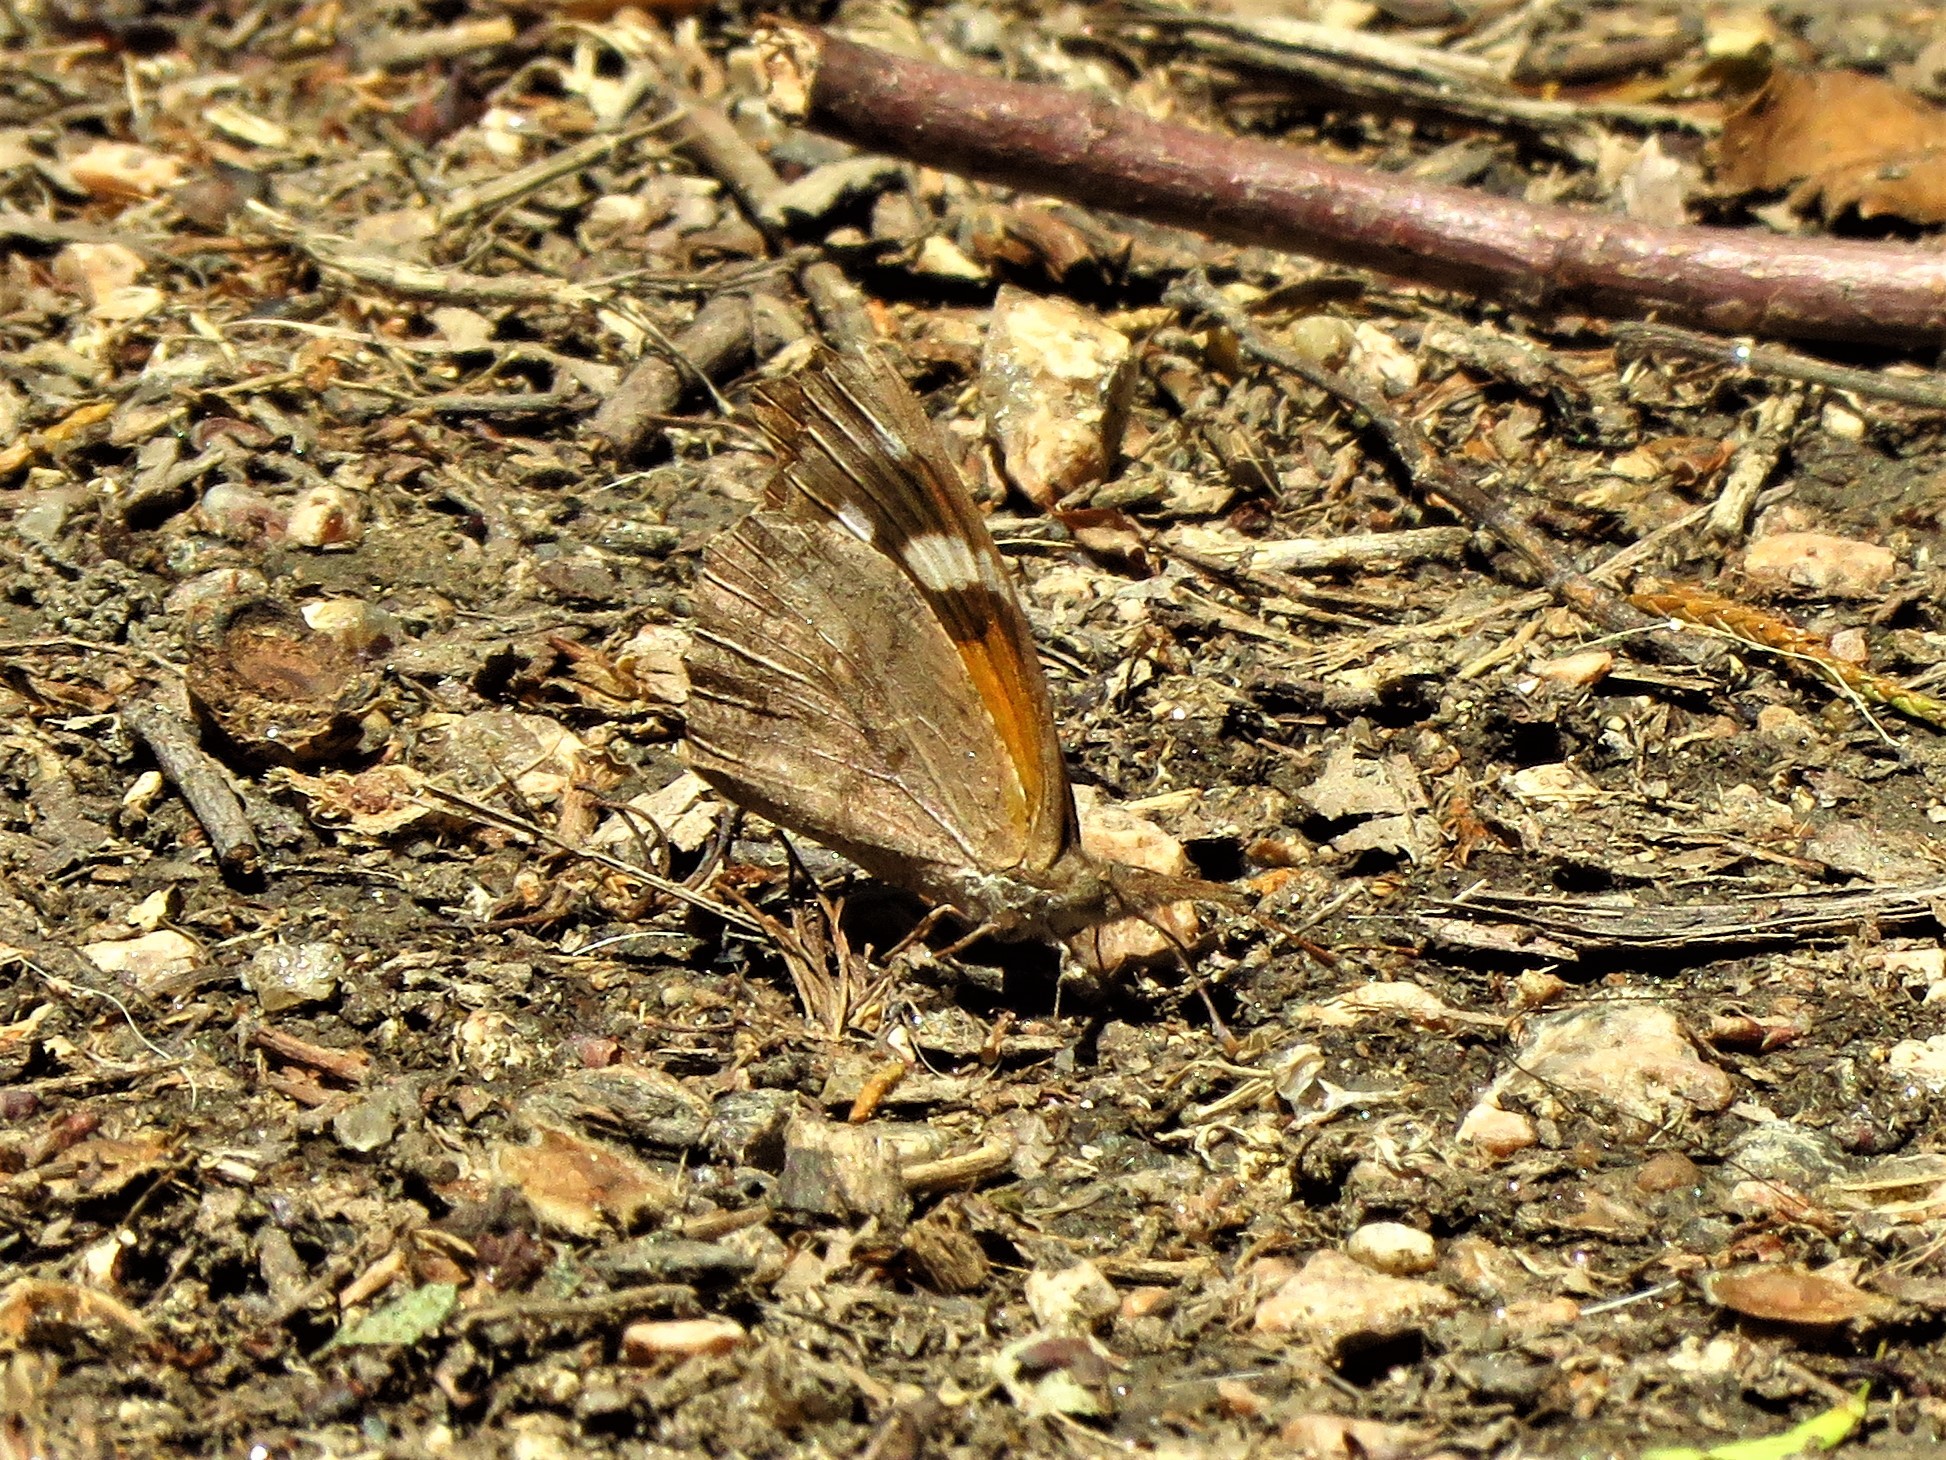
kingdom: Animalia
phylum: Arthropoda
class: Insecta
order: Lepidoptera
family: Nymphalidae
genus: Libytheana
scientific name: Libytheana carinenta
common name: American snout
